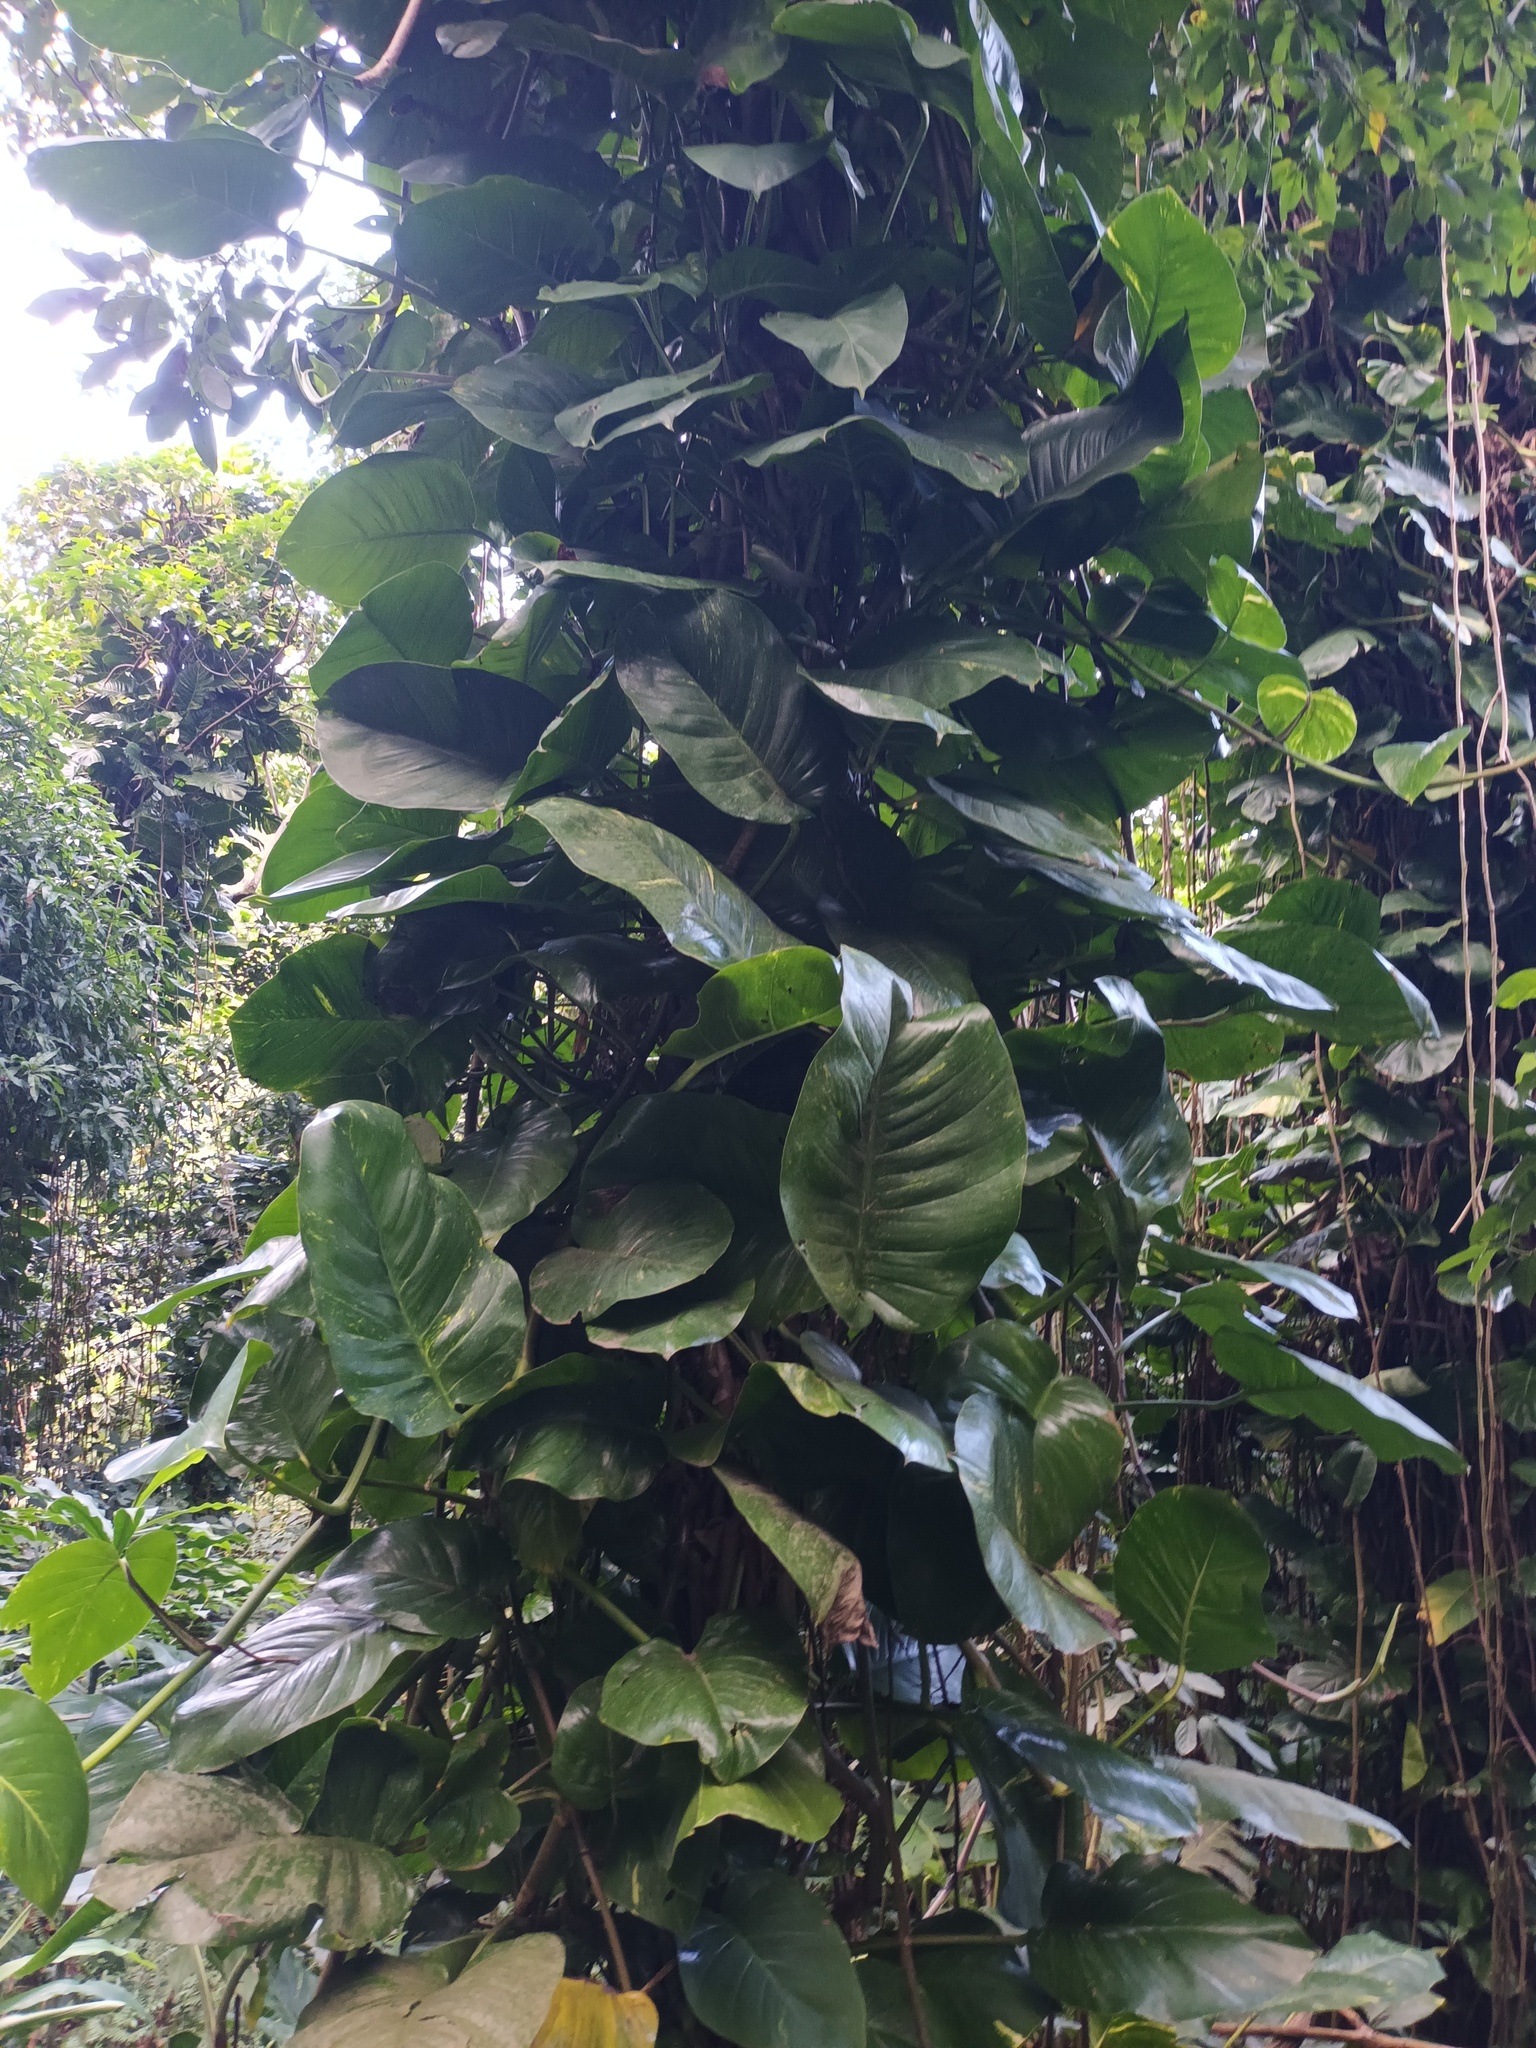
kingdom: Plantae
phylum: Tracheophyta
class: Liliopsida
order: Alismatales
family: Araceae
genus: Epipremnum
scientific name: Epipremnum aureum
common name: Golden hunter's-robe
